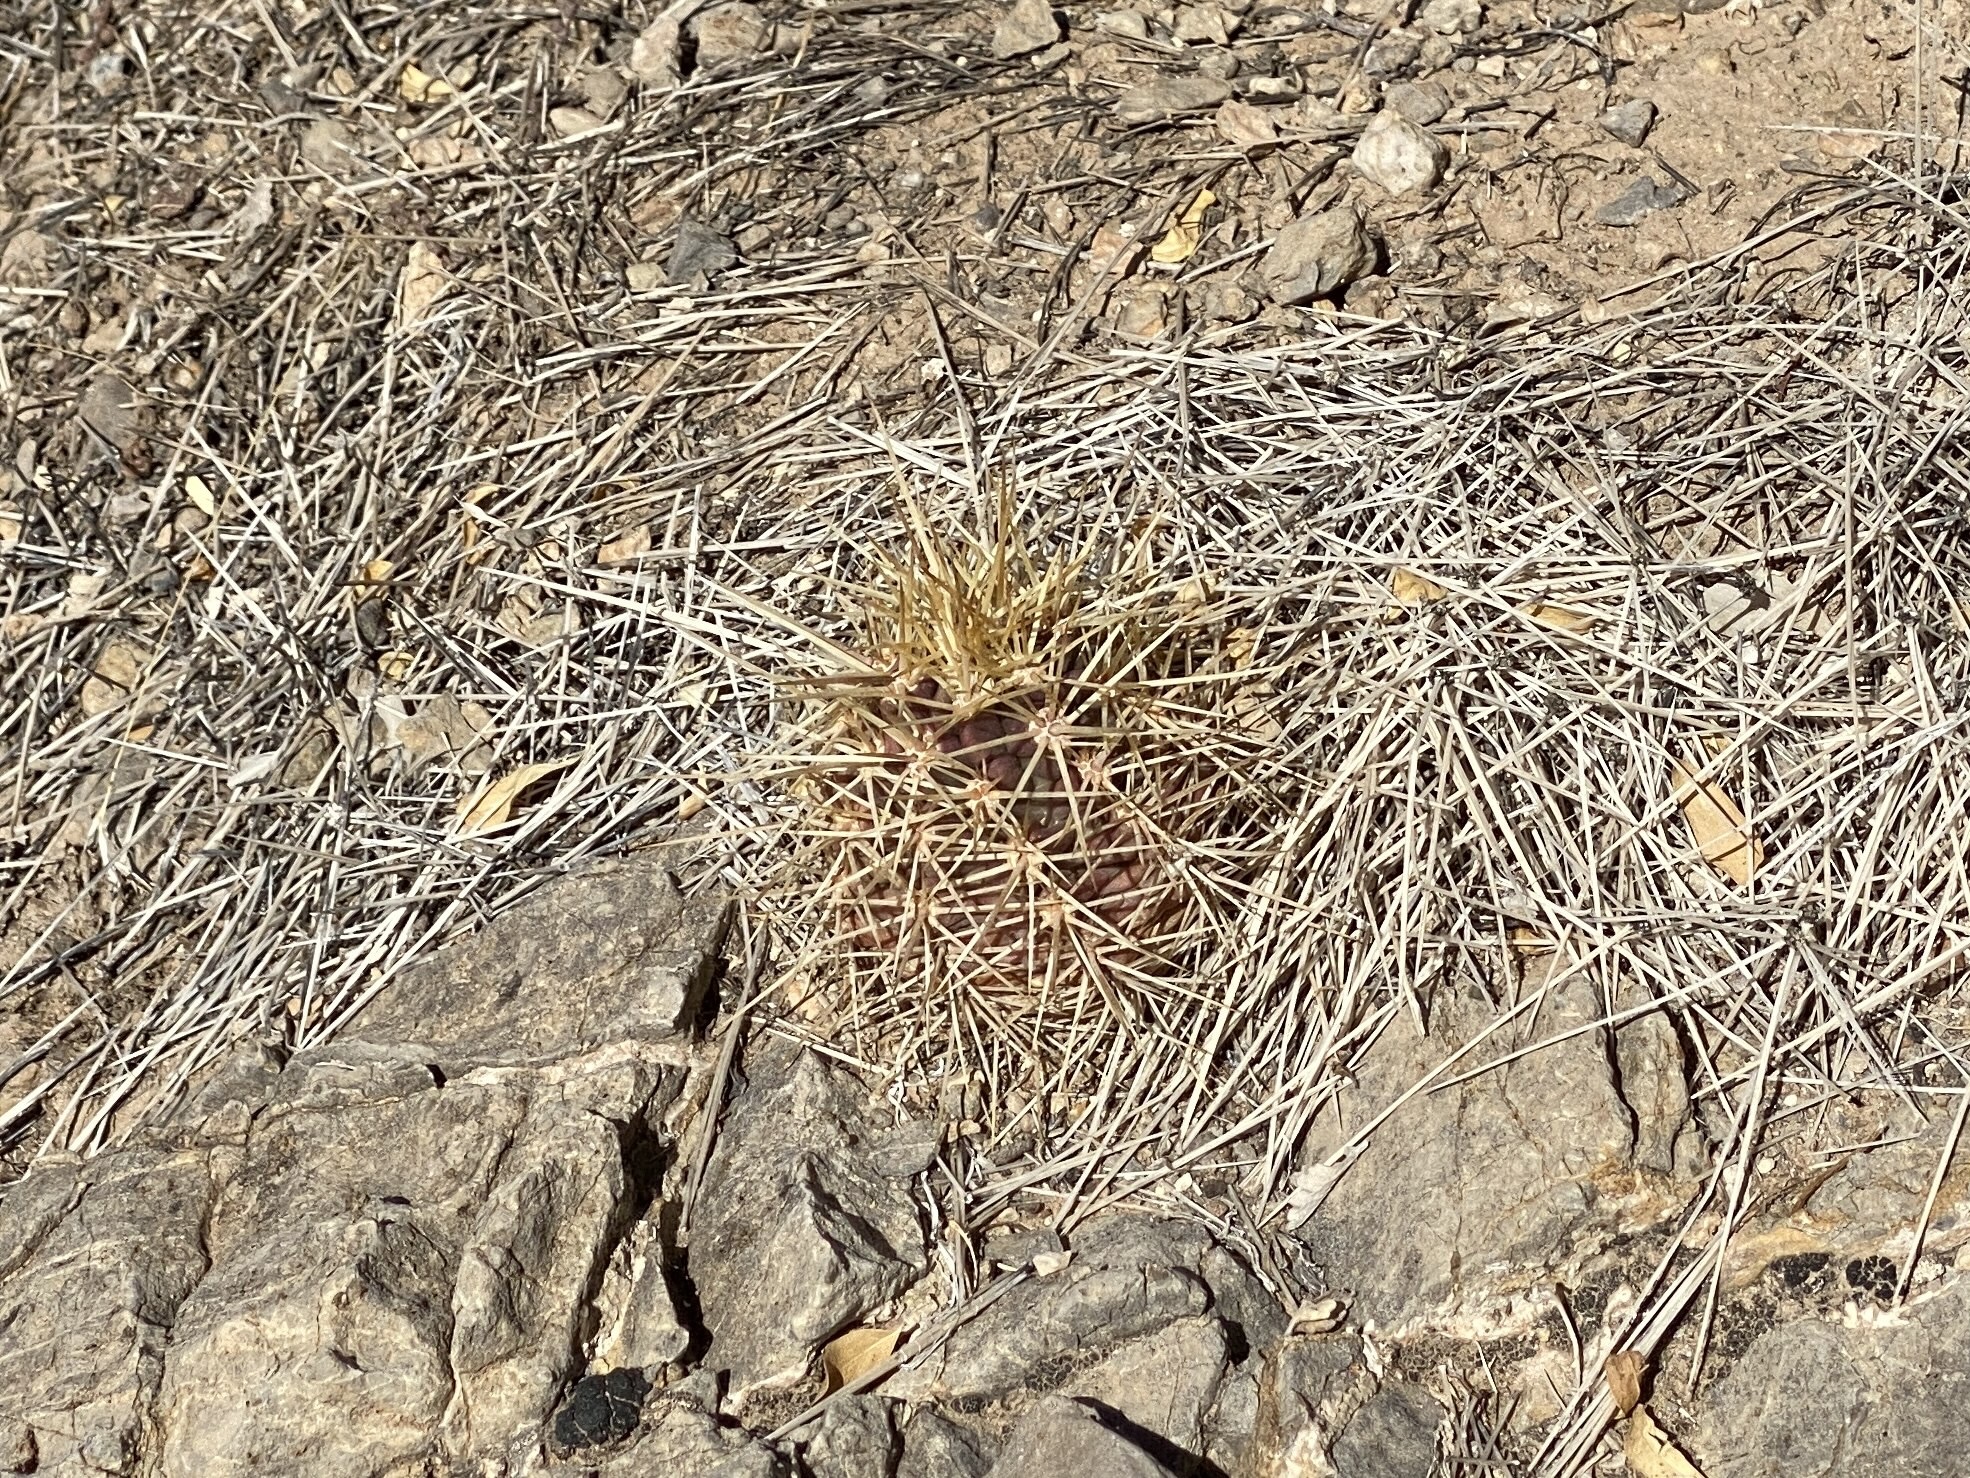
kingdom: Plantae
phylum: Tracheophyta
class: Magnoliopsida
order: Caryophyllales
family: Cactaceae
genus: Echinocereus
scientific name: Echinocereus coccineus
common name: Scarlet hedgehog cactus
